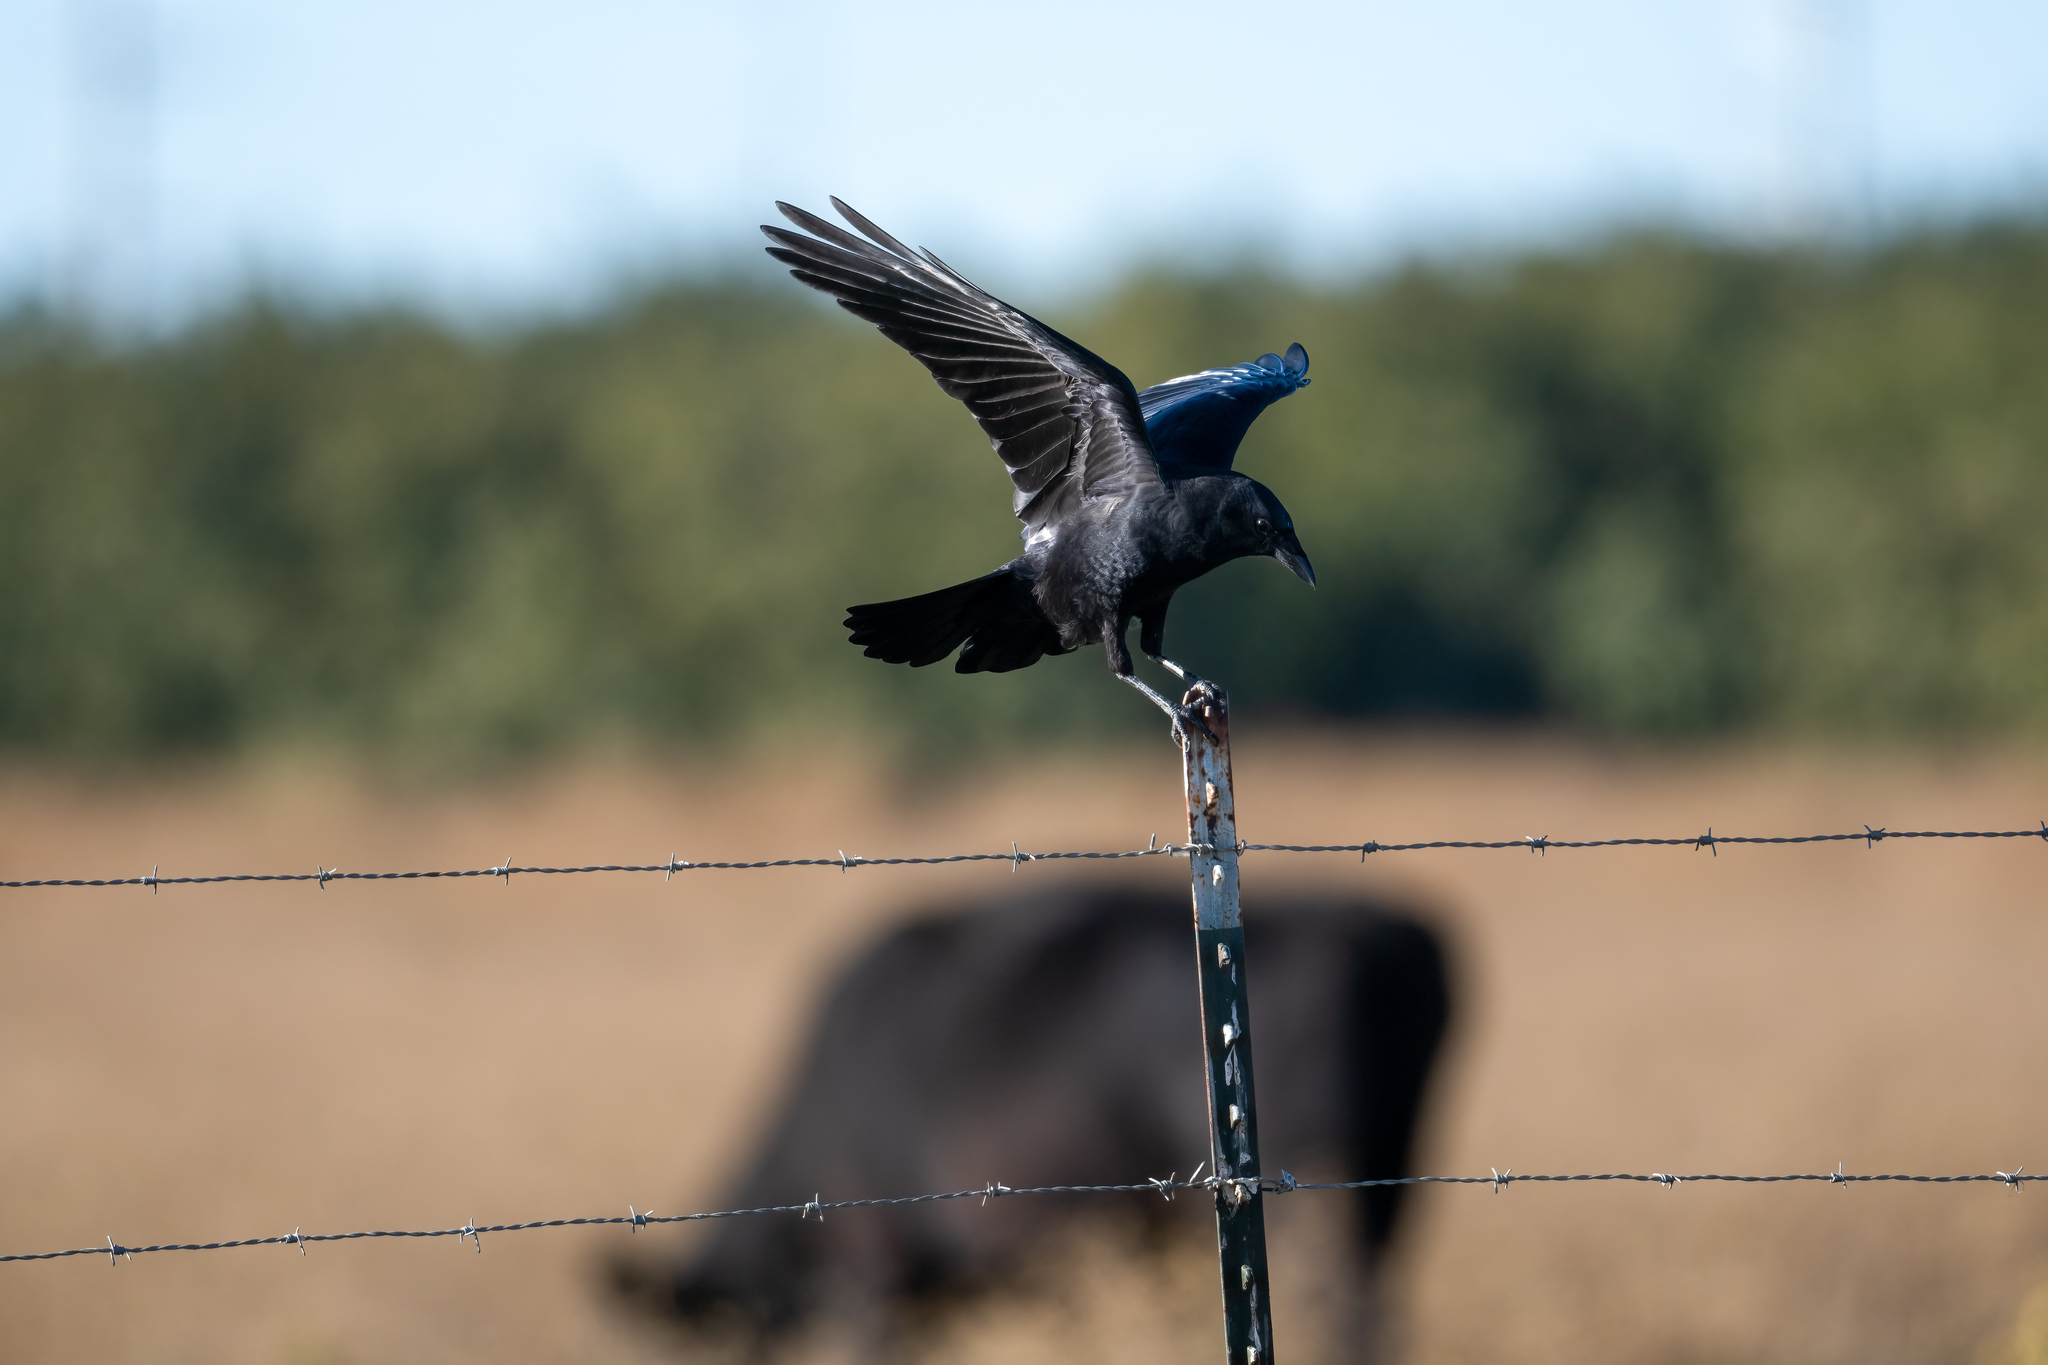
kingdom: Animalia
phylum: Chordata
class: Aves
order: Passeriformes
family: Corvidae
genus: Corvus
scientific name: Corvus brachyrhynchos
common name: American crow
